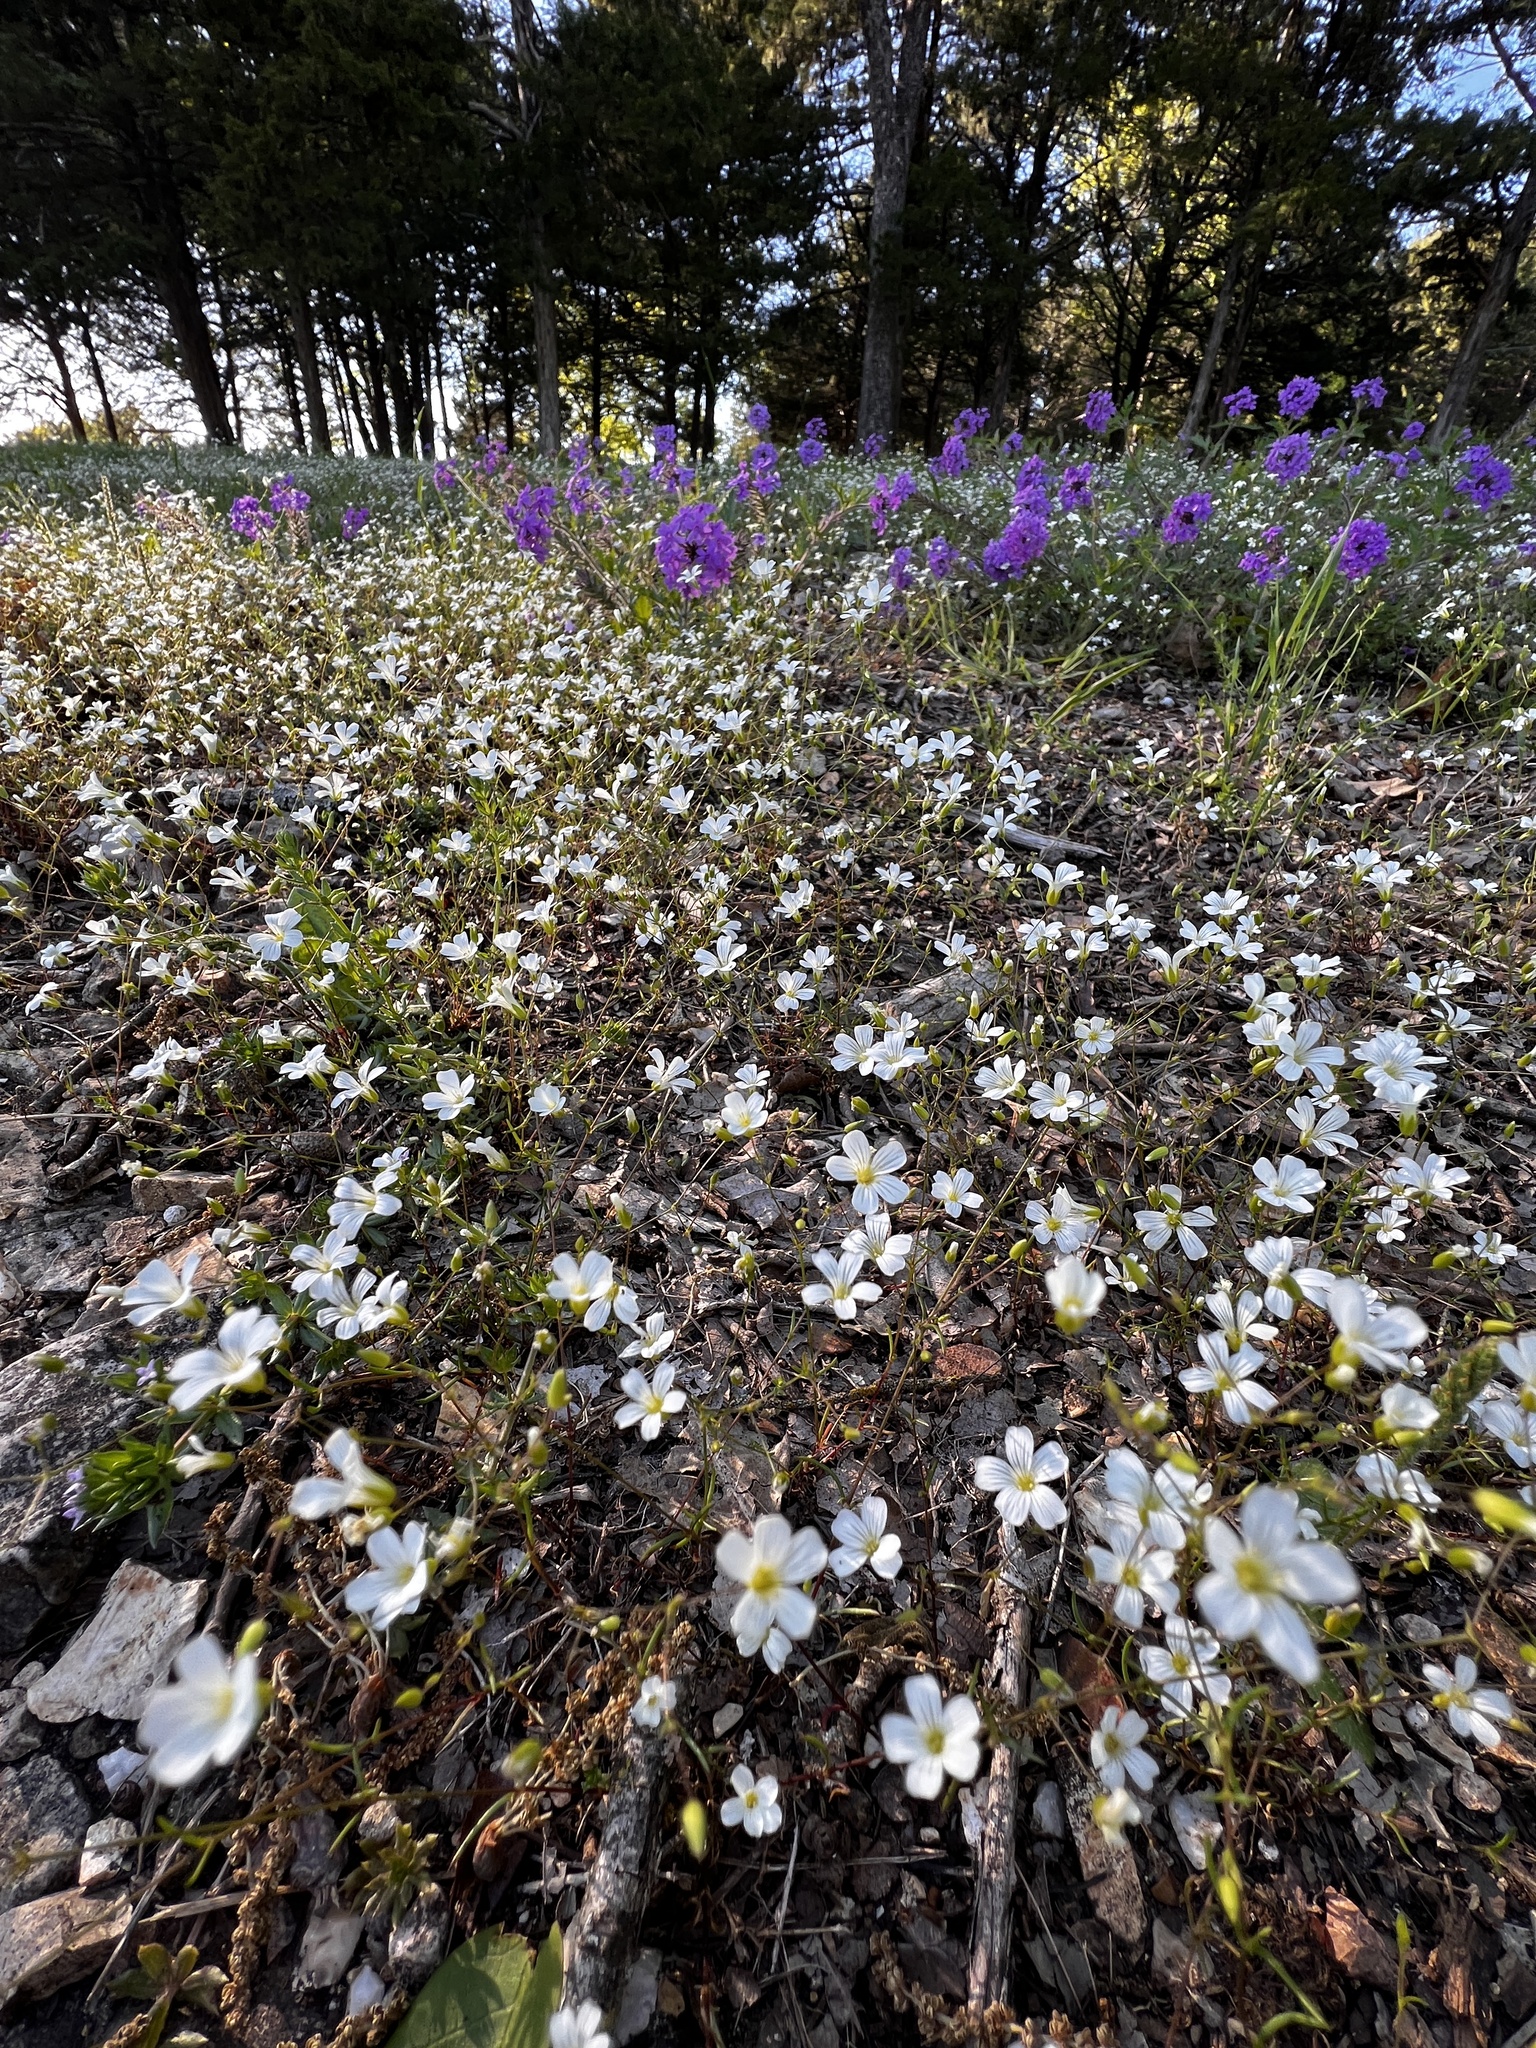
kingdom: Plantae
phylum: Tracheophyta
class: Magnoliopsida
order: Caryophyllales
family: Caryophyllaceae
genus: Mononeuria
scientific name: Mononeuria patula
